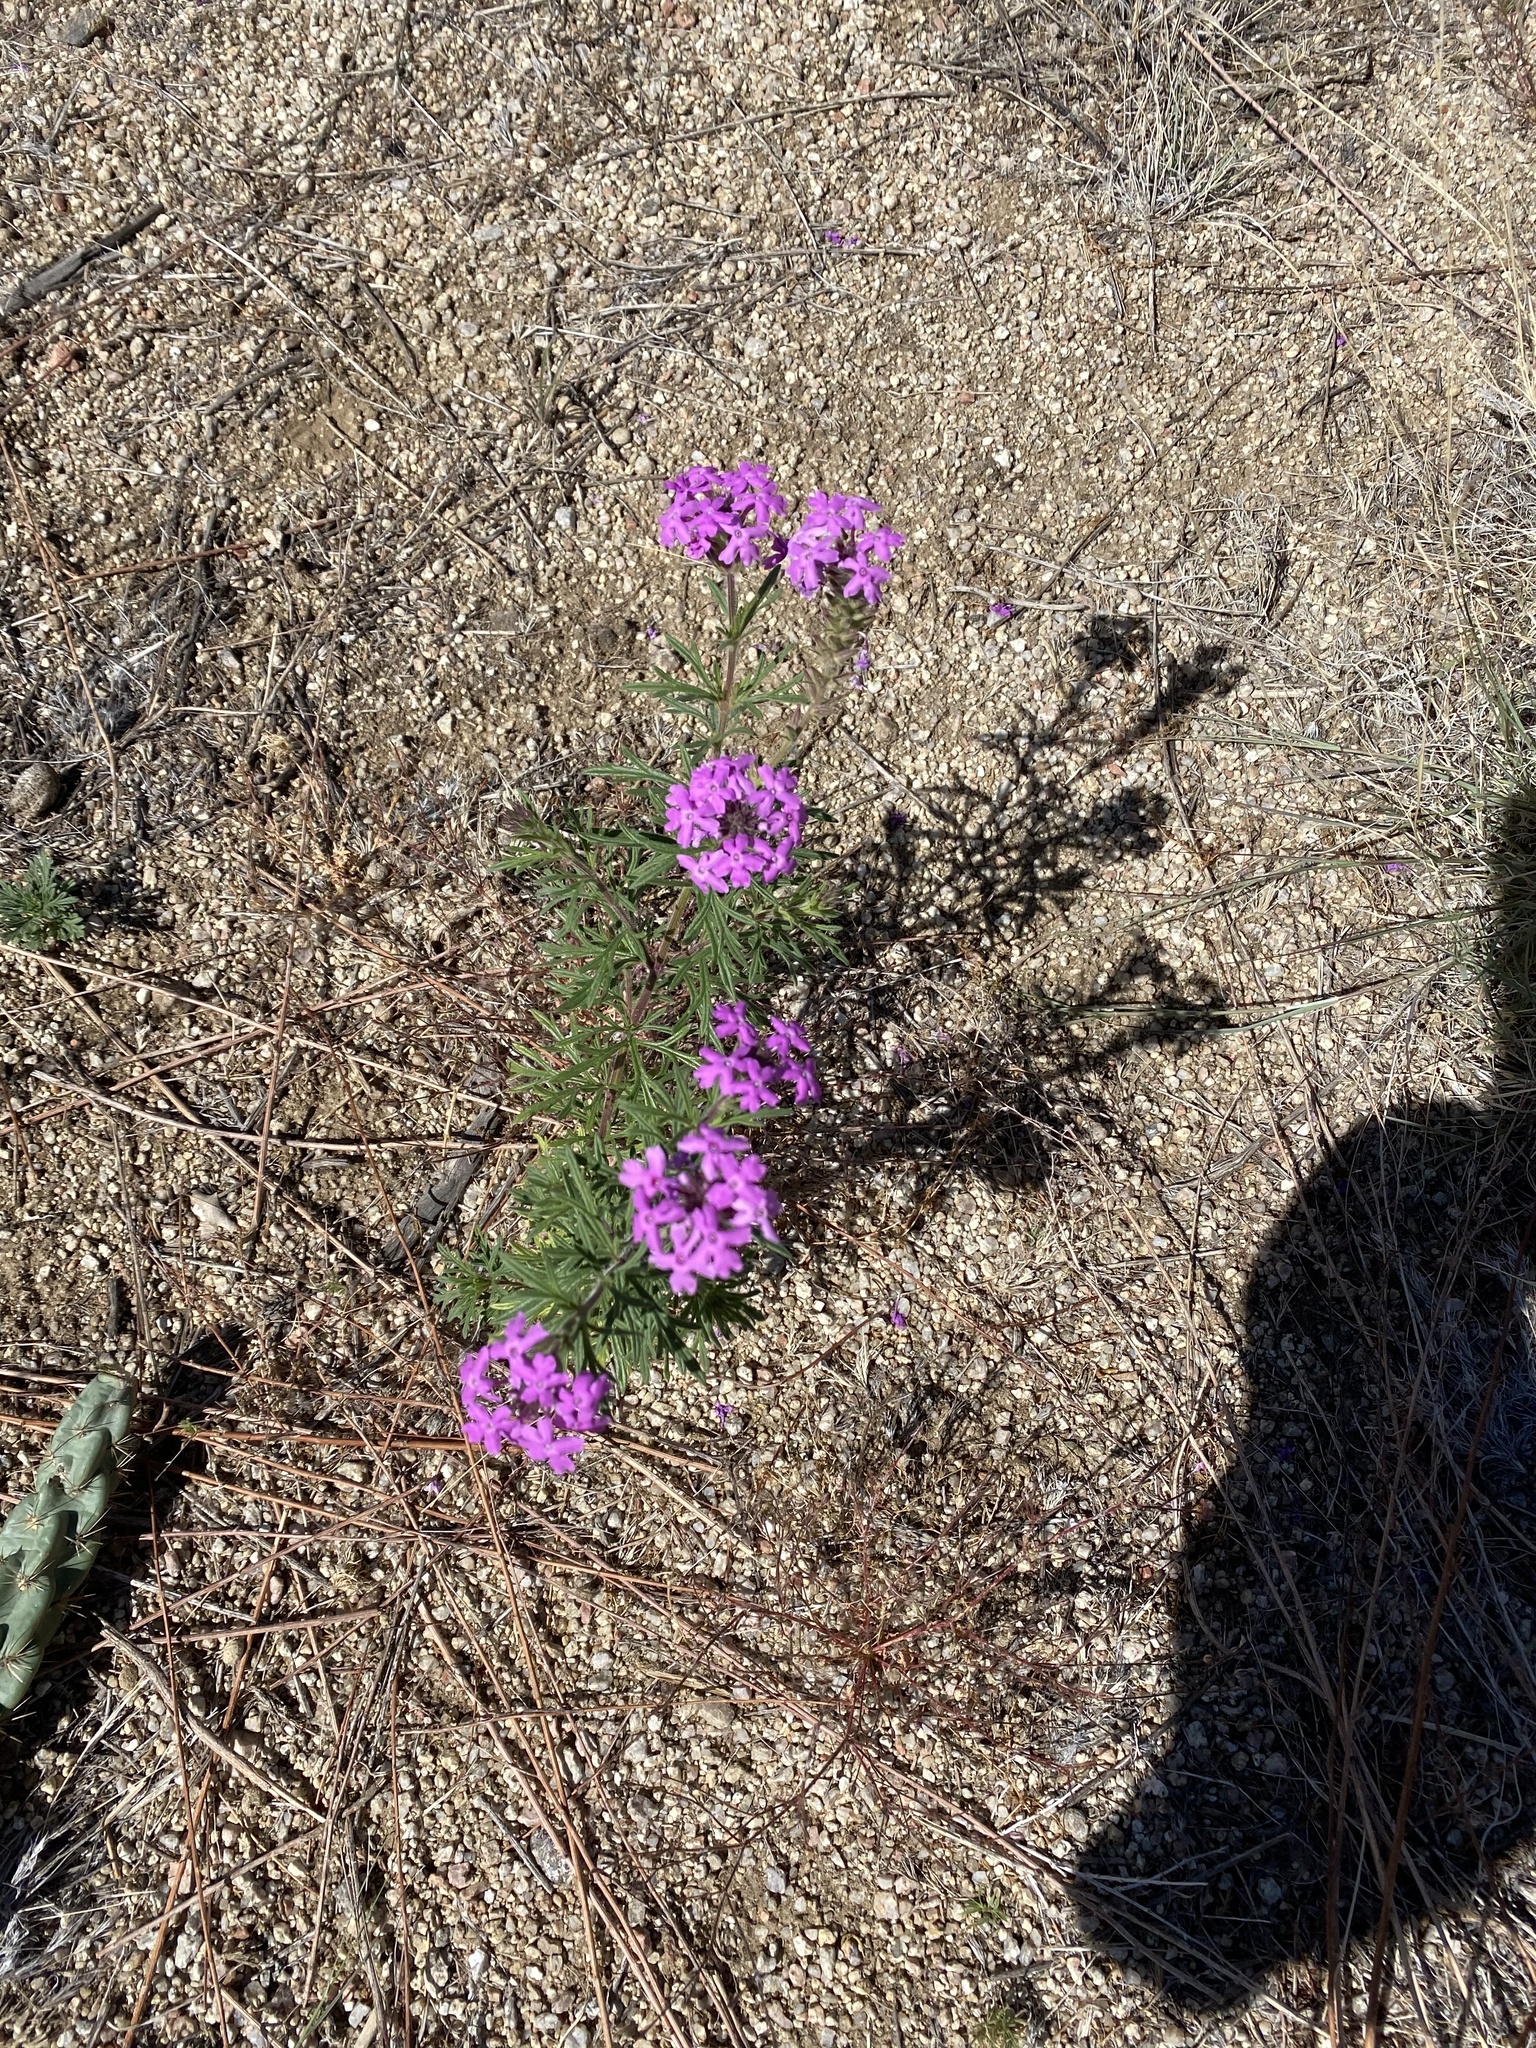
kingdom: Plantae
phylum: Tracheophyta
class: Magnoliopsida
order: Lamiales
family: Verbenaceae
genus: Verbena
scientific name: Verbena bipinnatifida
